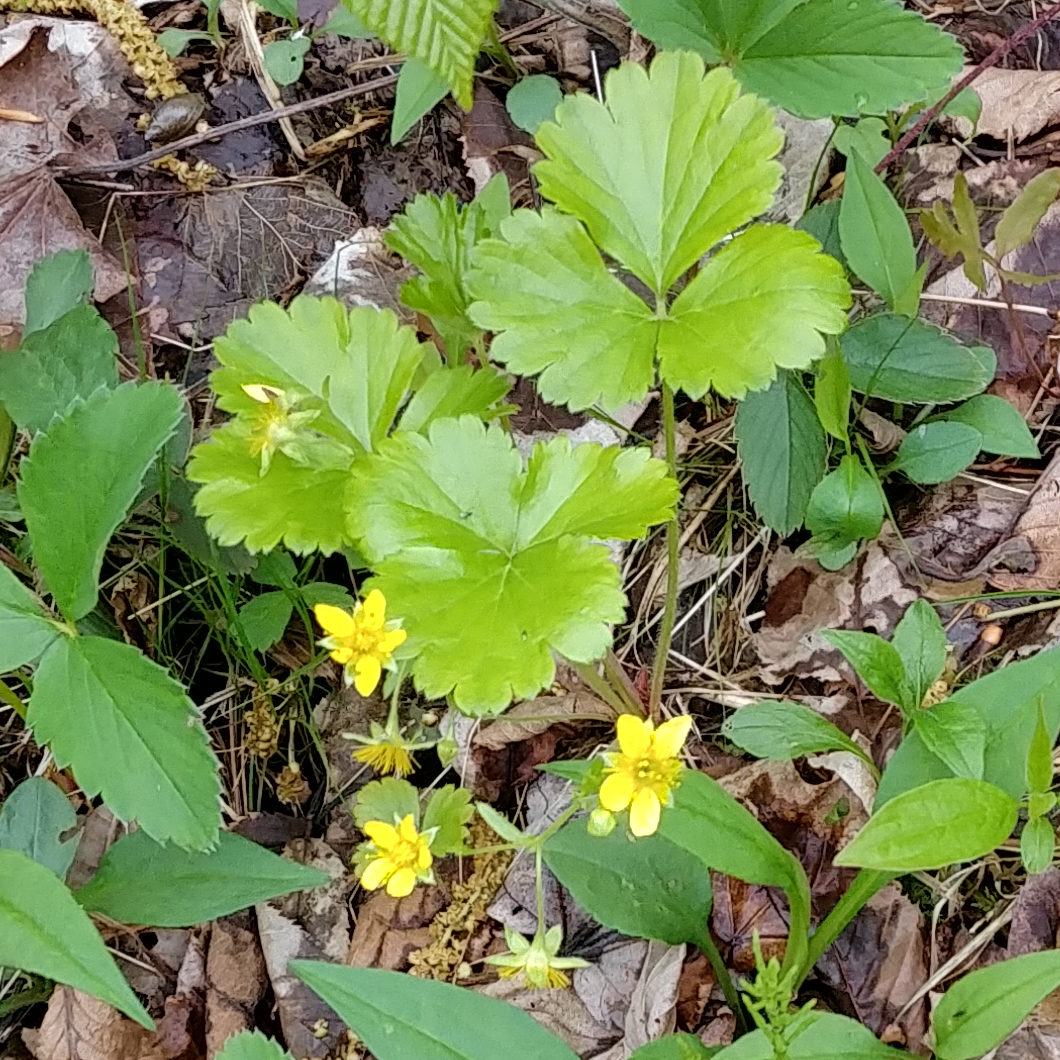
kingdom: Plantae
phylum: Tracheophyta
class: Magnoliopsida
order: Rosales
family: Rosaceae
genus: Geum
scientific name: Geum fragarioides
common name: Appalachian barren strawberry
